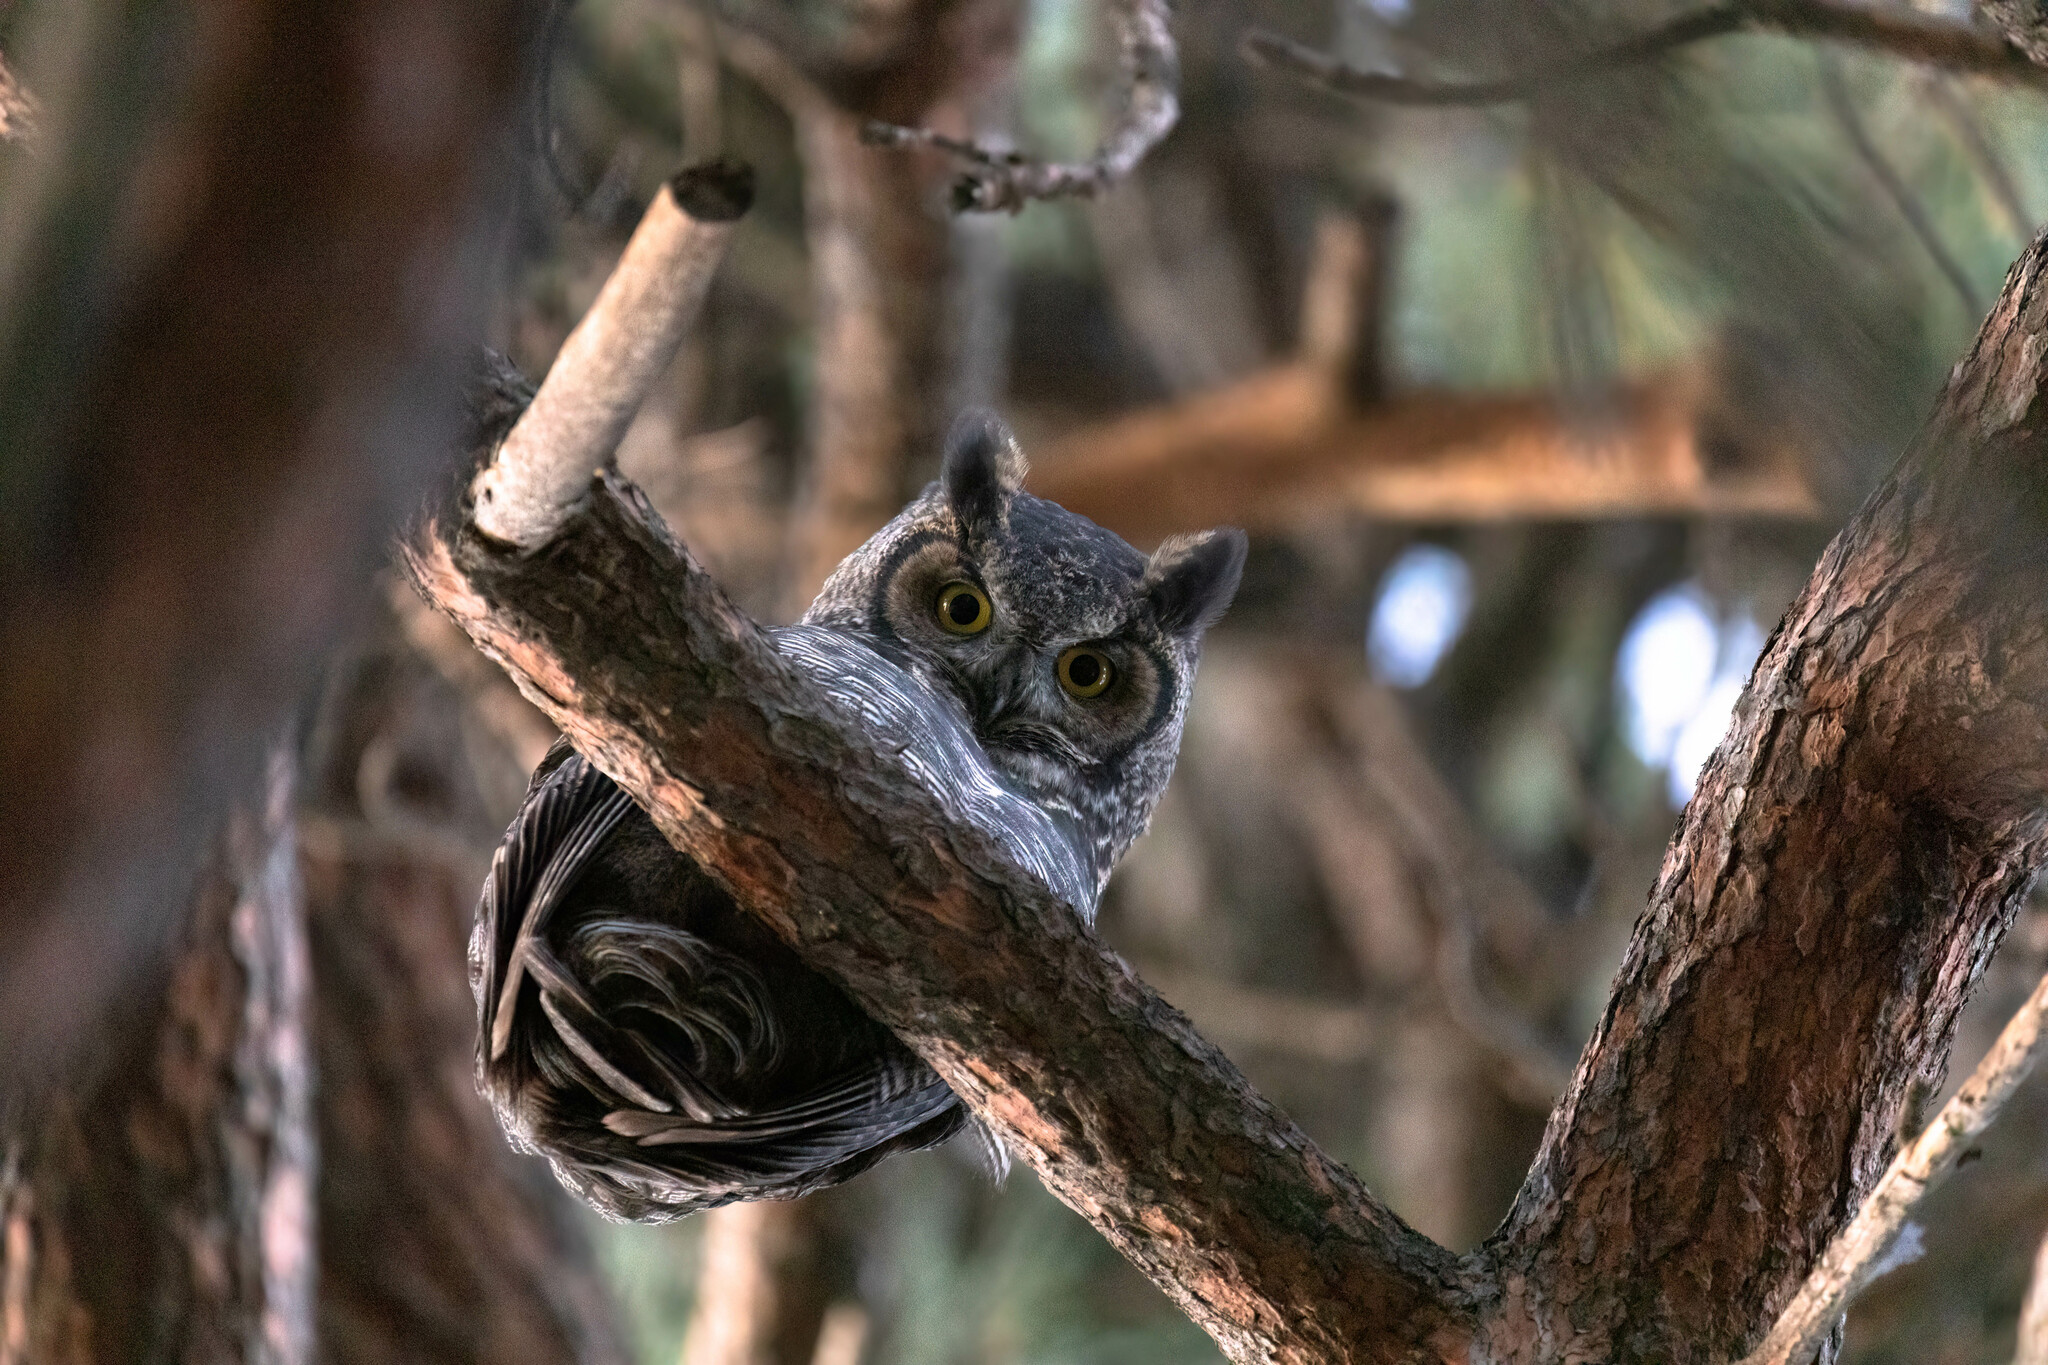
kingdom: Animalia
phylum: Chordata
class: Aves
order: Strigiformes
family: Strigidae
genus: Bubo
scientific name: Bubo virginianus
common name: Great horned owl
